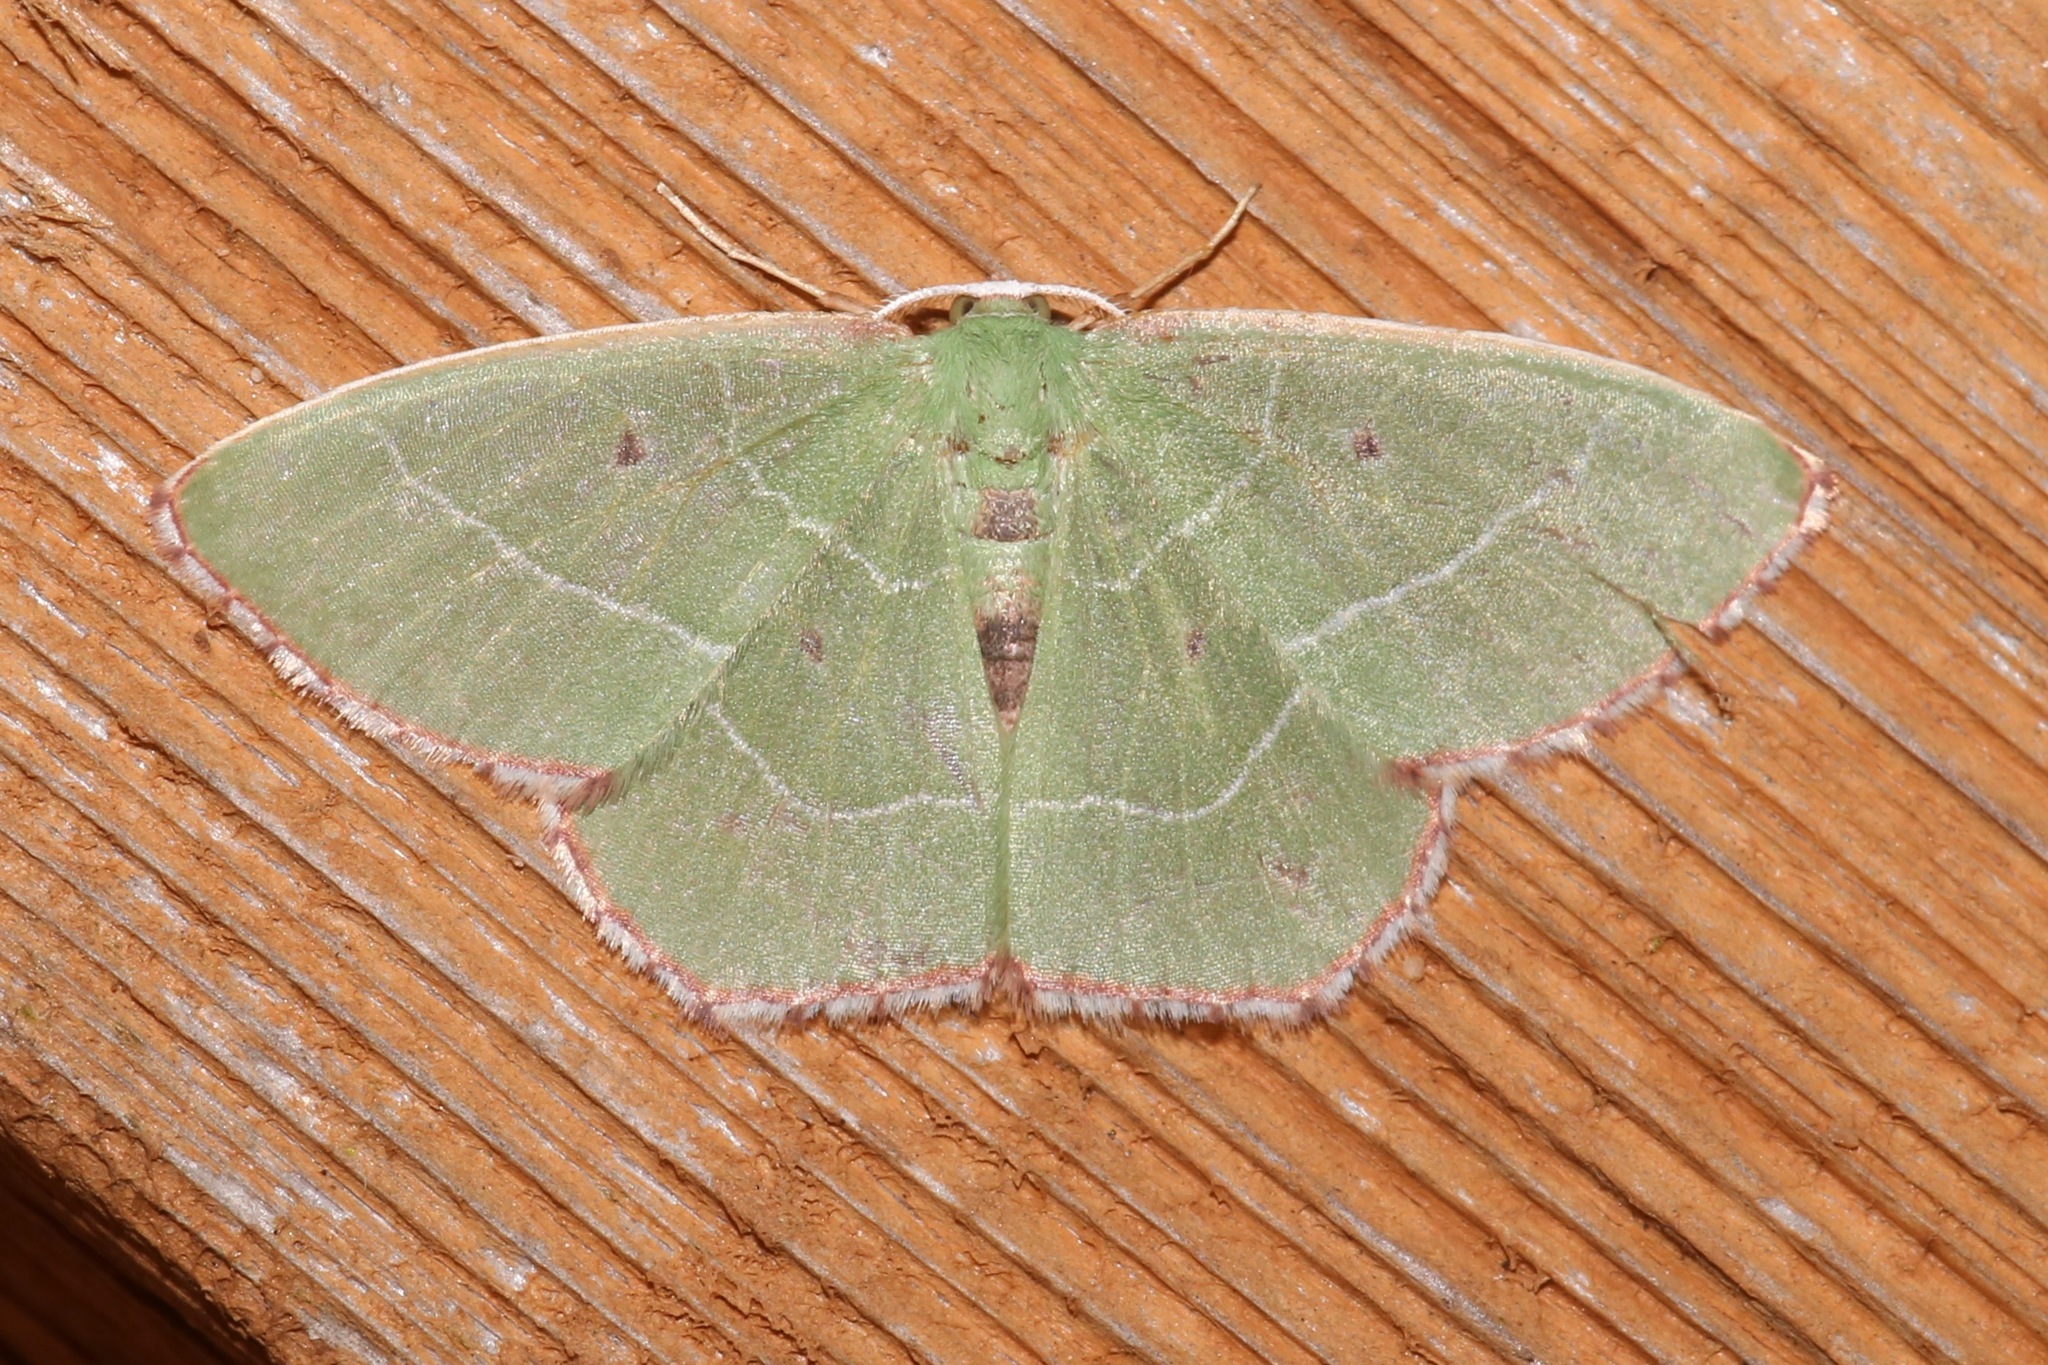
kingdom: Animalia
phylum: Arthropoda
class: Insecta
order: Lepidoptera
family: Geometridae
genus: Nemoria
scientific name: Nemoria saturiba
